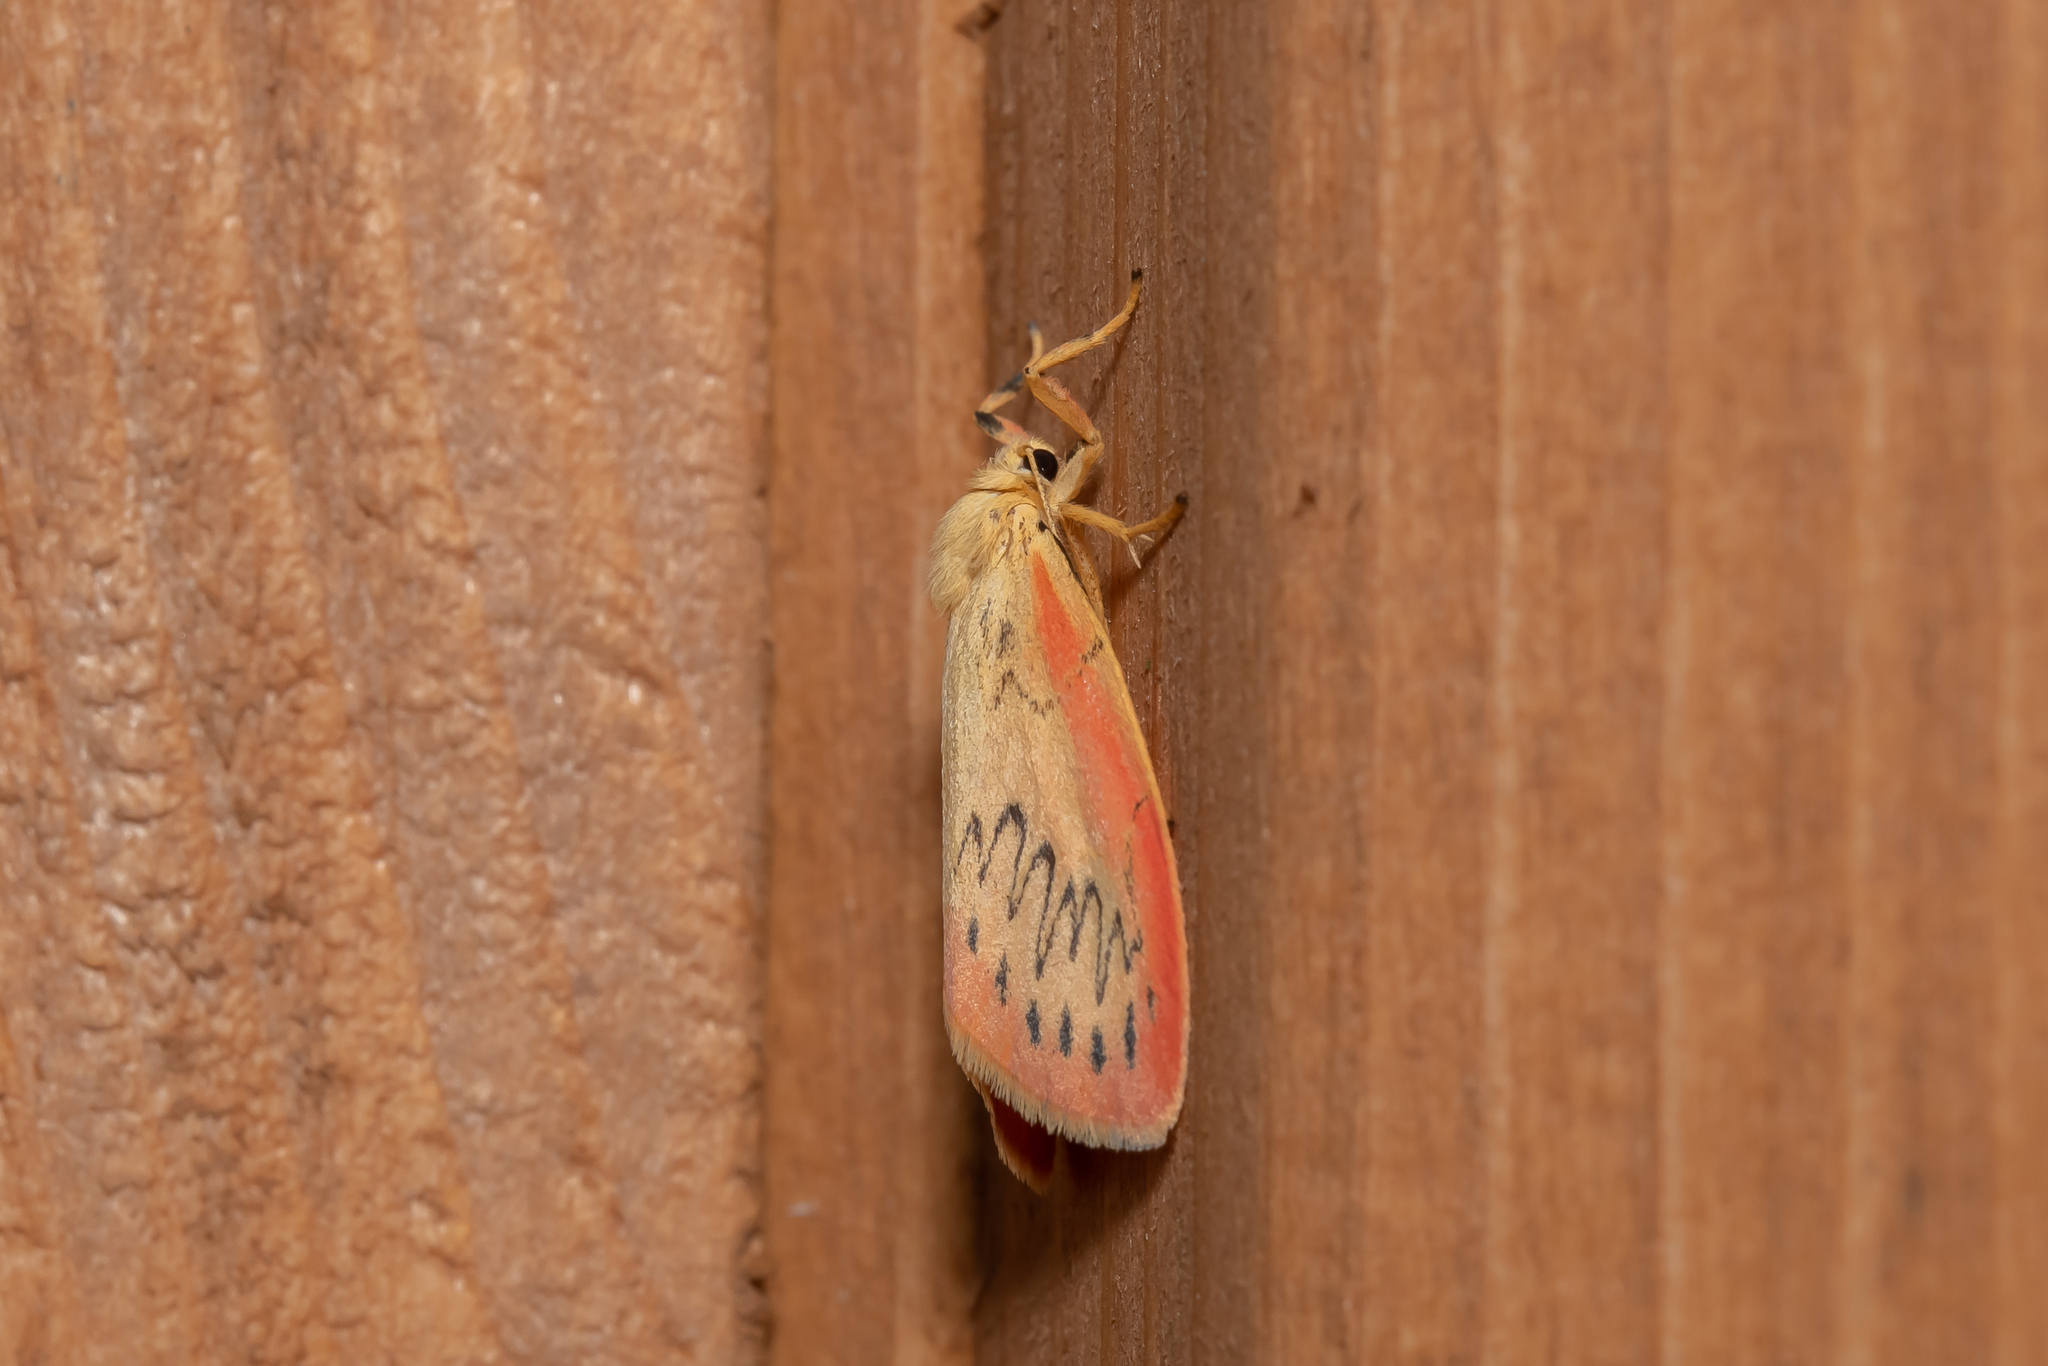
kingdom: Animalia
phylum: Arthropoda
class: Insecta
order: Lepidoptera
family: Erebidae
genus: Miltochrista
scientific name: Miltochrista miniata
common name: Rosy footman
